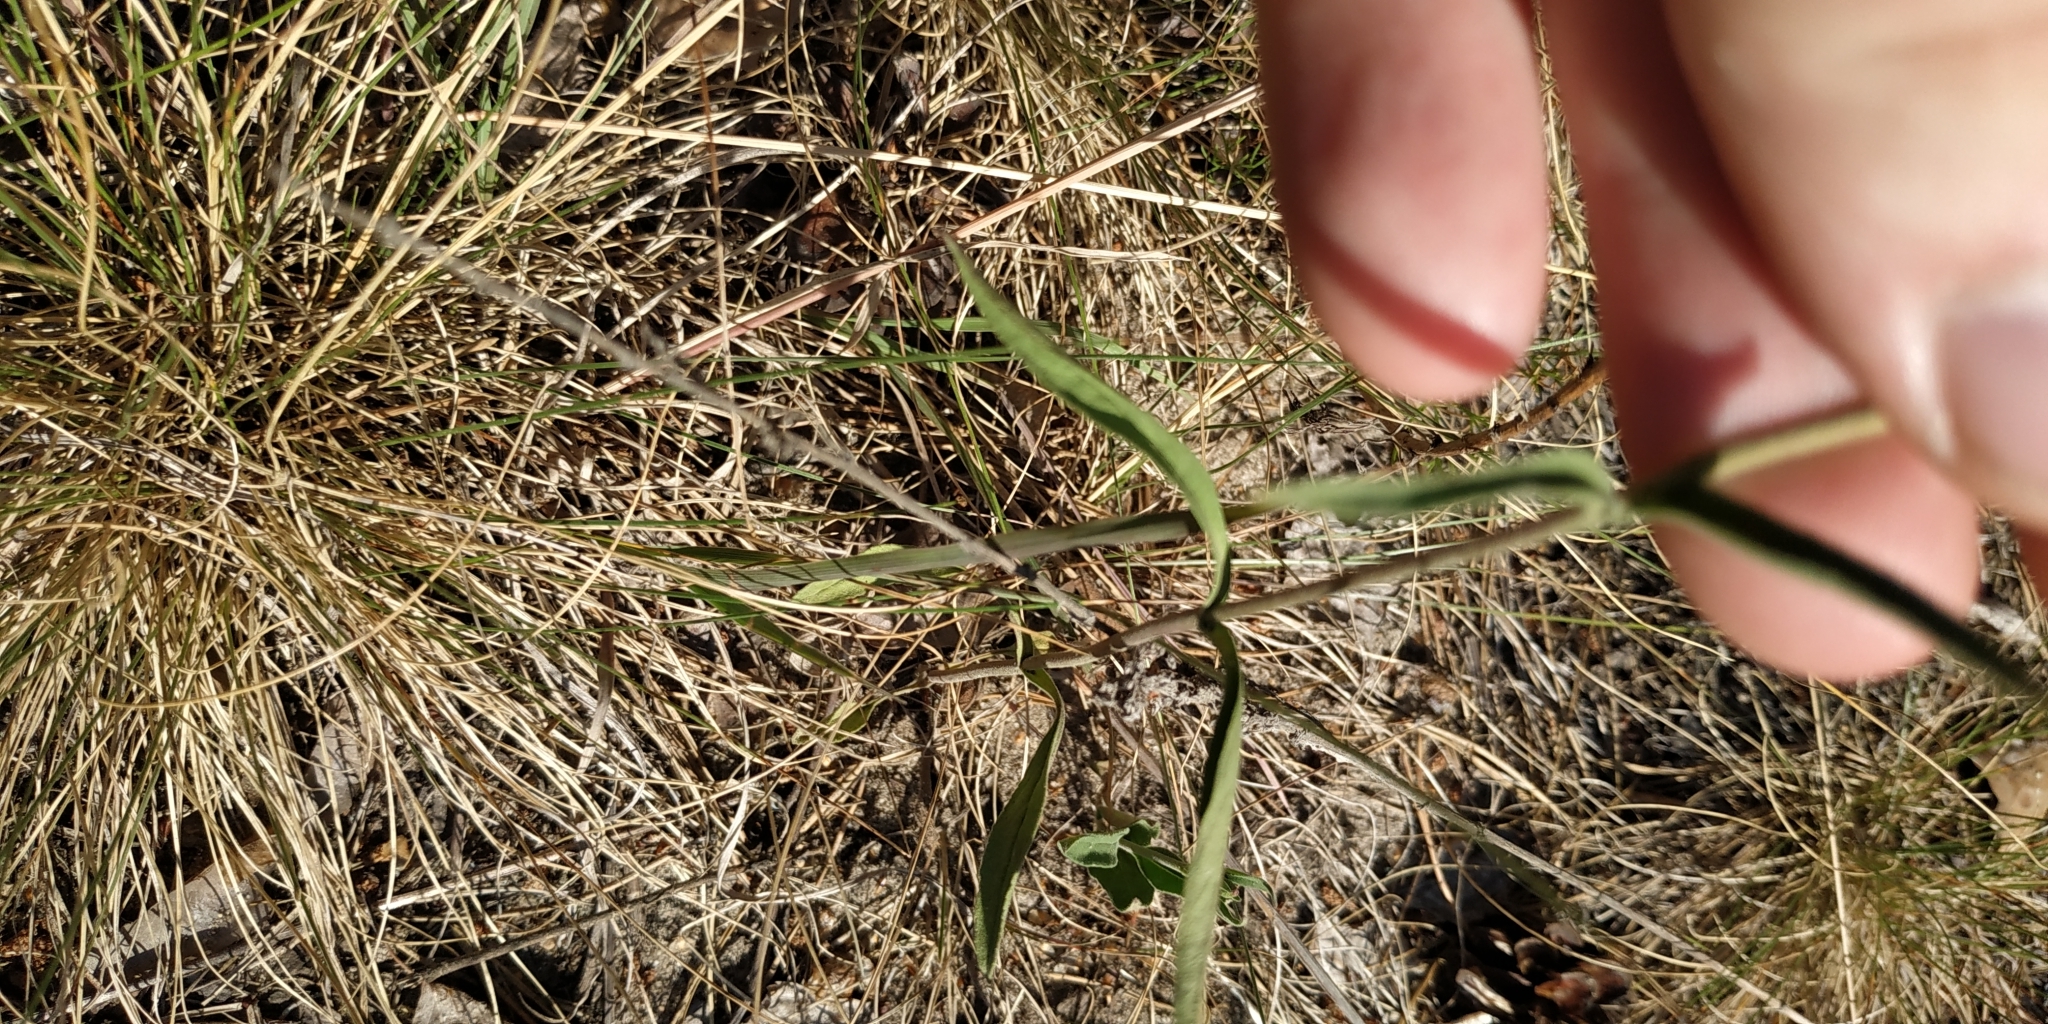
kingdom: Plantae
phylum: Tracheophyta
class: Magnoliopsida
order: Lamiales
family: Plantaginaceae
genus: Veronica
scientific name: Veronica spicata
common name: Spiked speedwell
